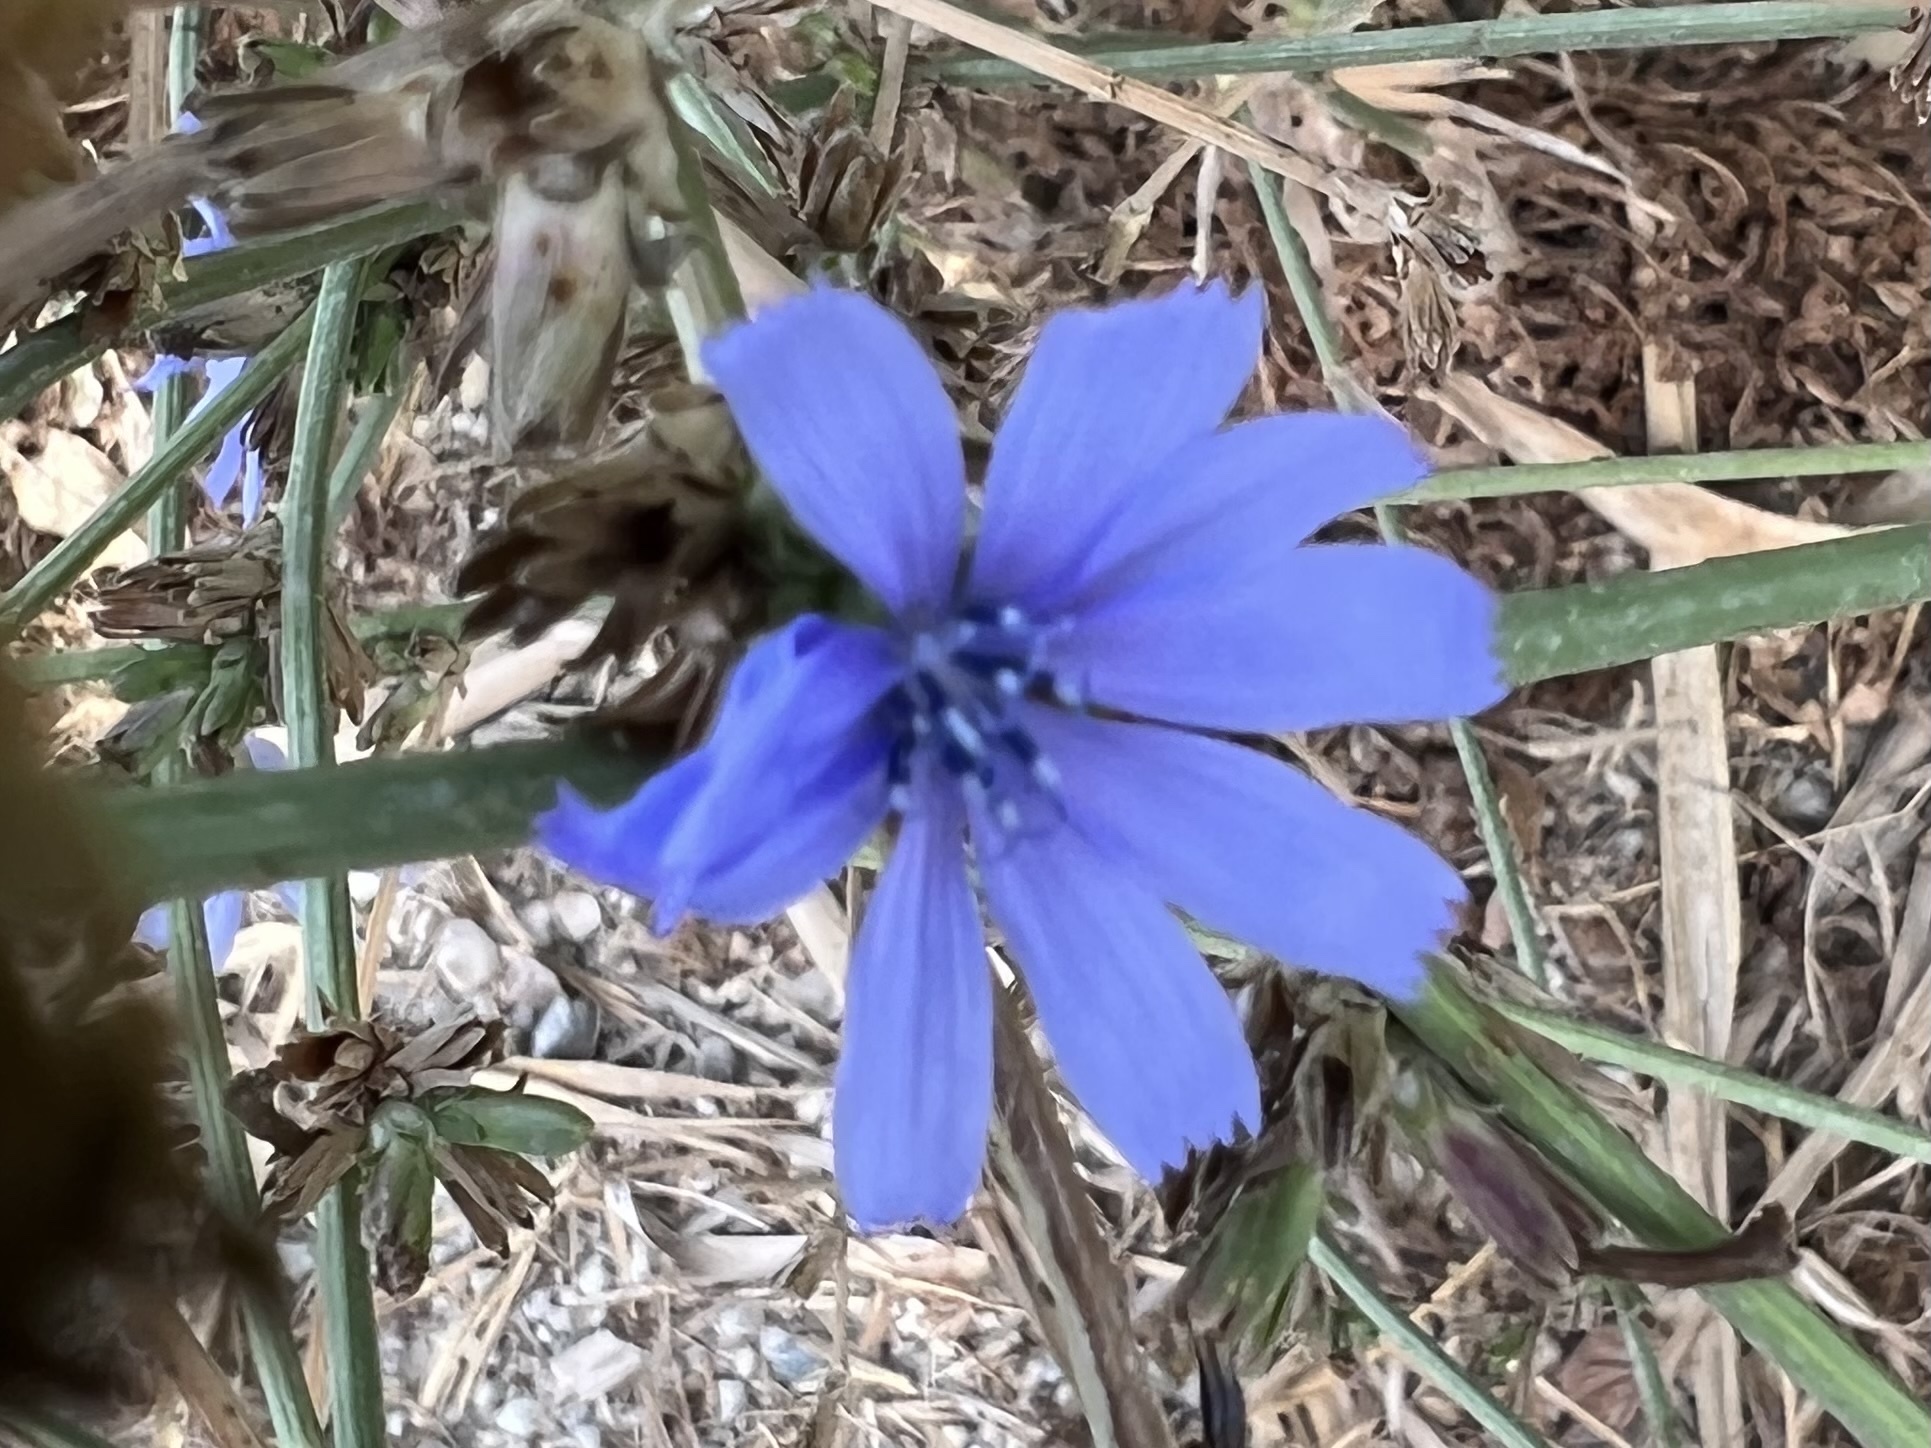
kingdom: Plantae
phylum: Tracheophyta
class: Magnoliopsida
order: Asterales
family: Asteraceae
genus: Cichorium
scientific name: Cichorium intybus
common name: Chicory
